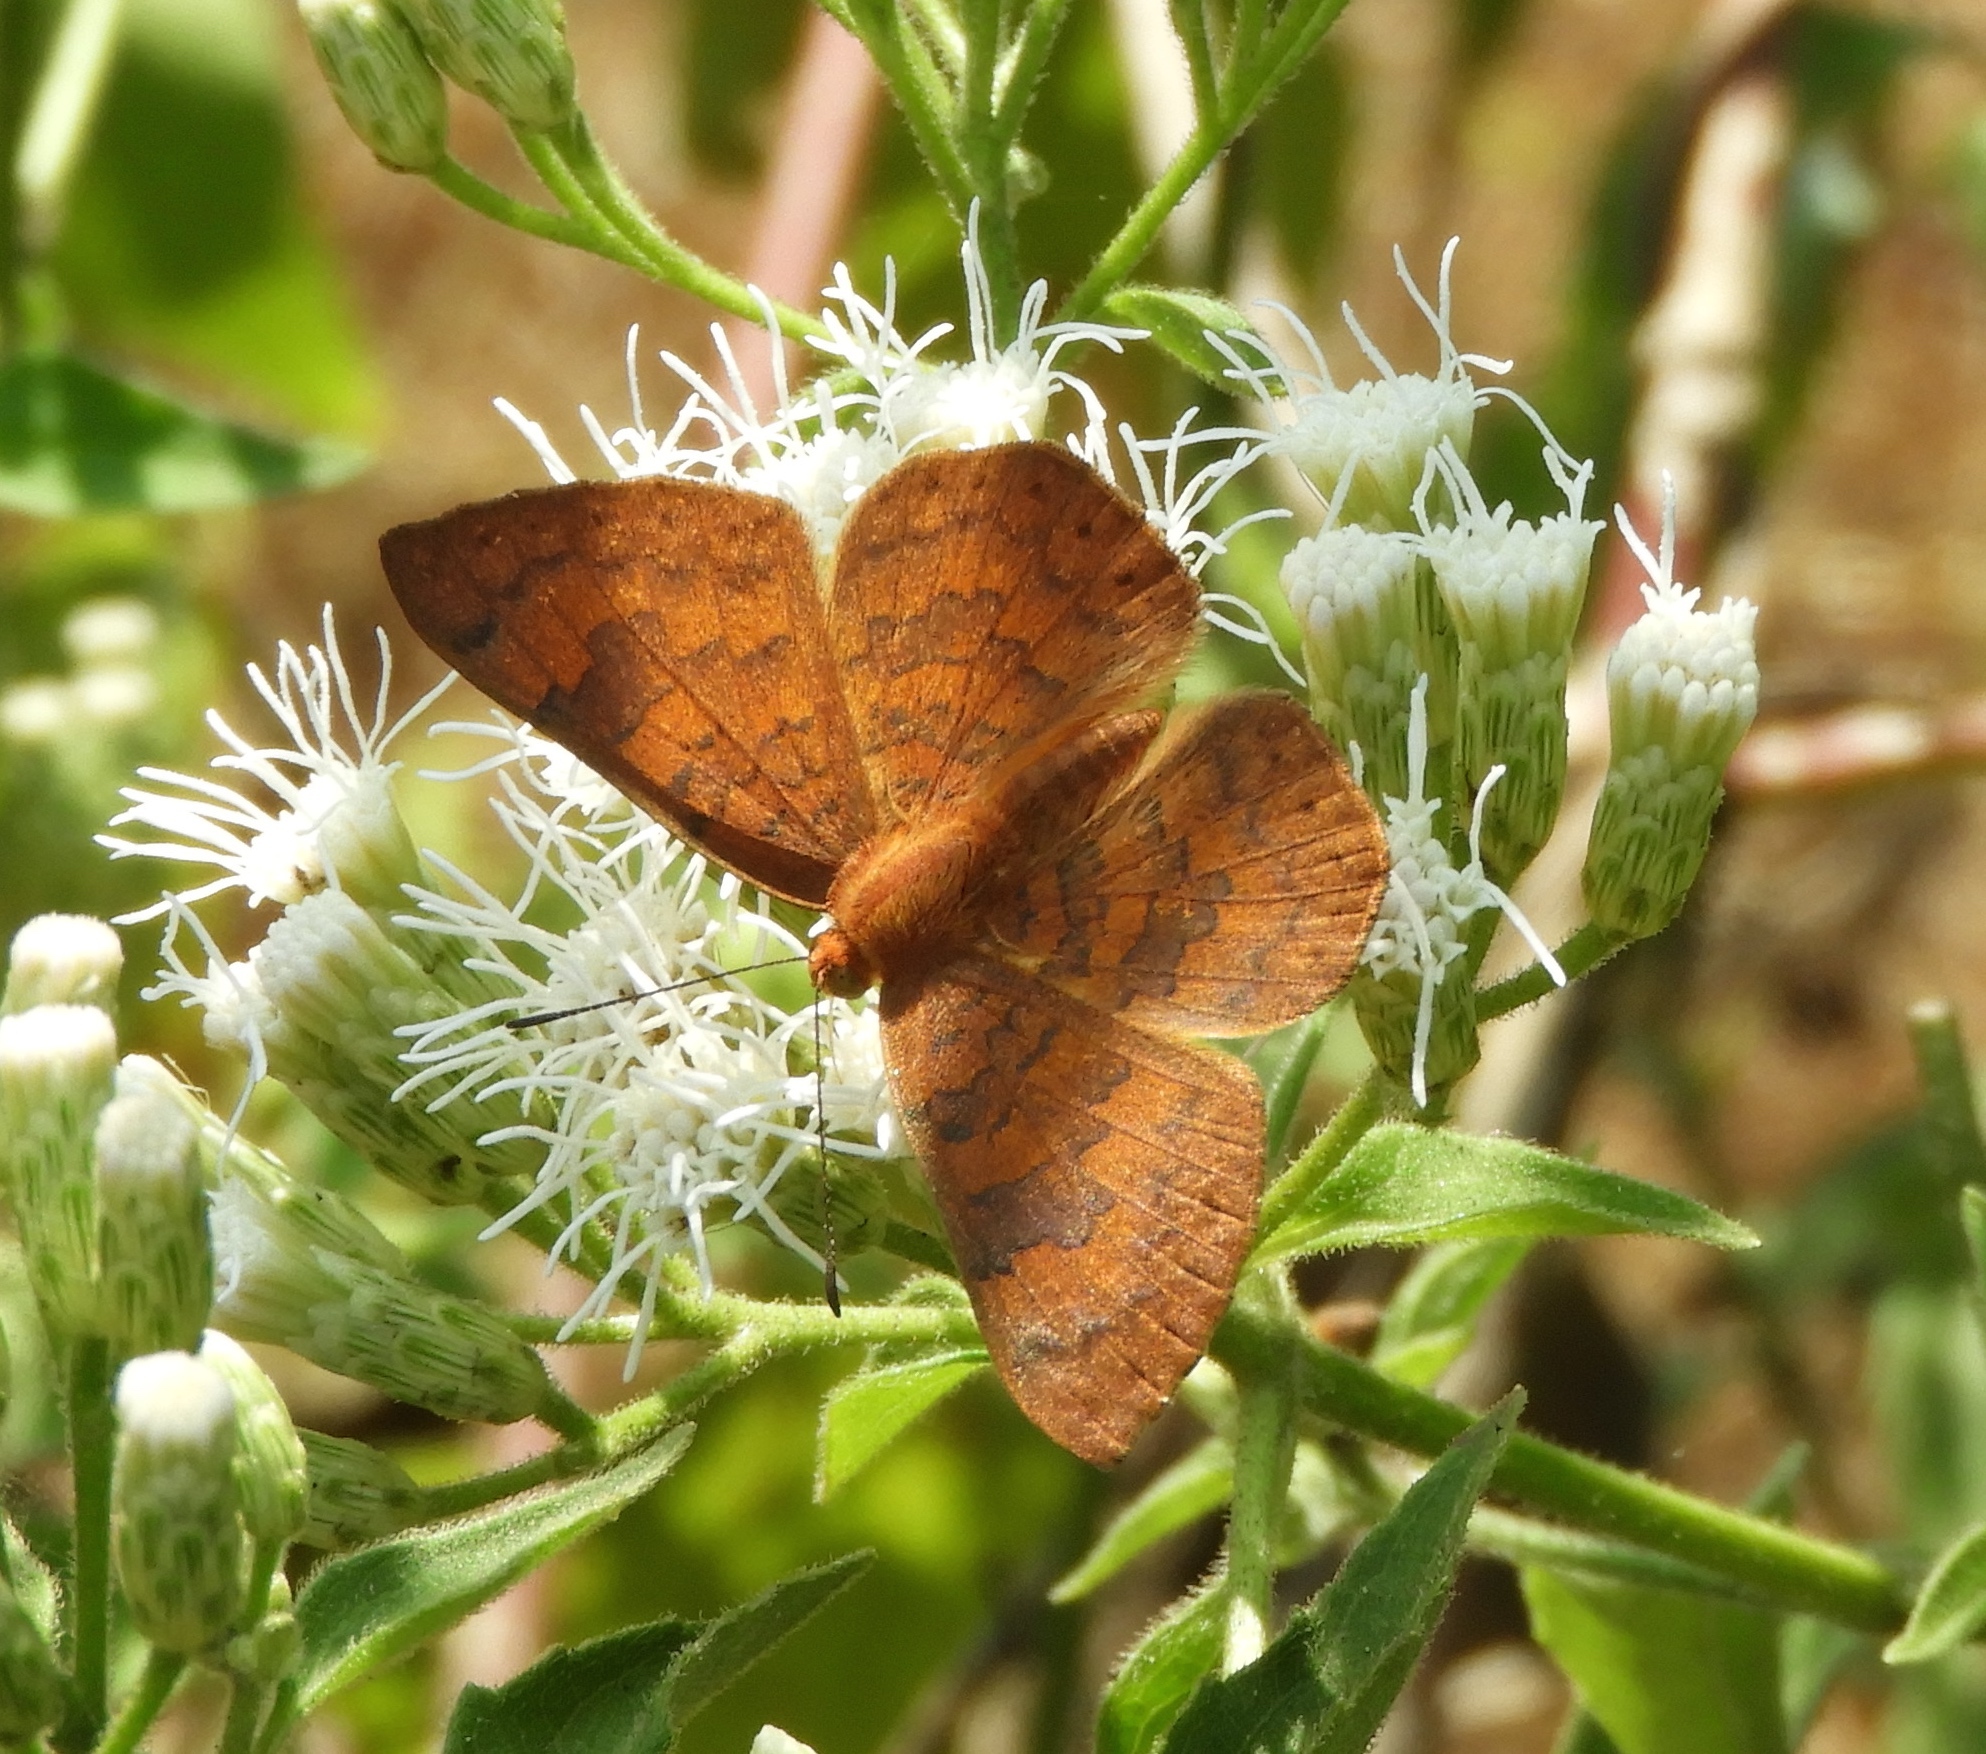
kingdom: Animalia
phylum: Arthropoda
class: Insecta
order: Lepidoptera
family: Lycaenidae
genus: Emesis
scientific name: Emesis tenedia
